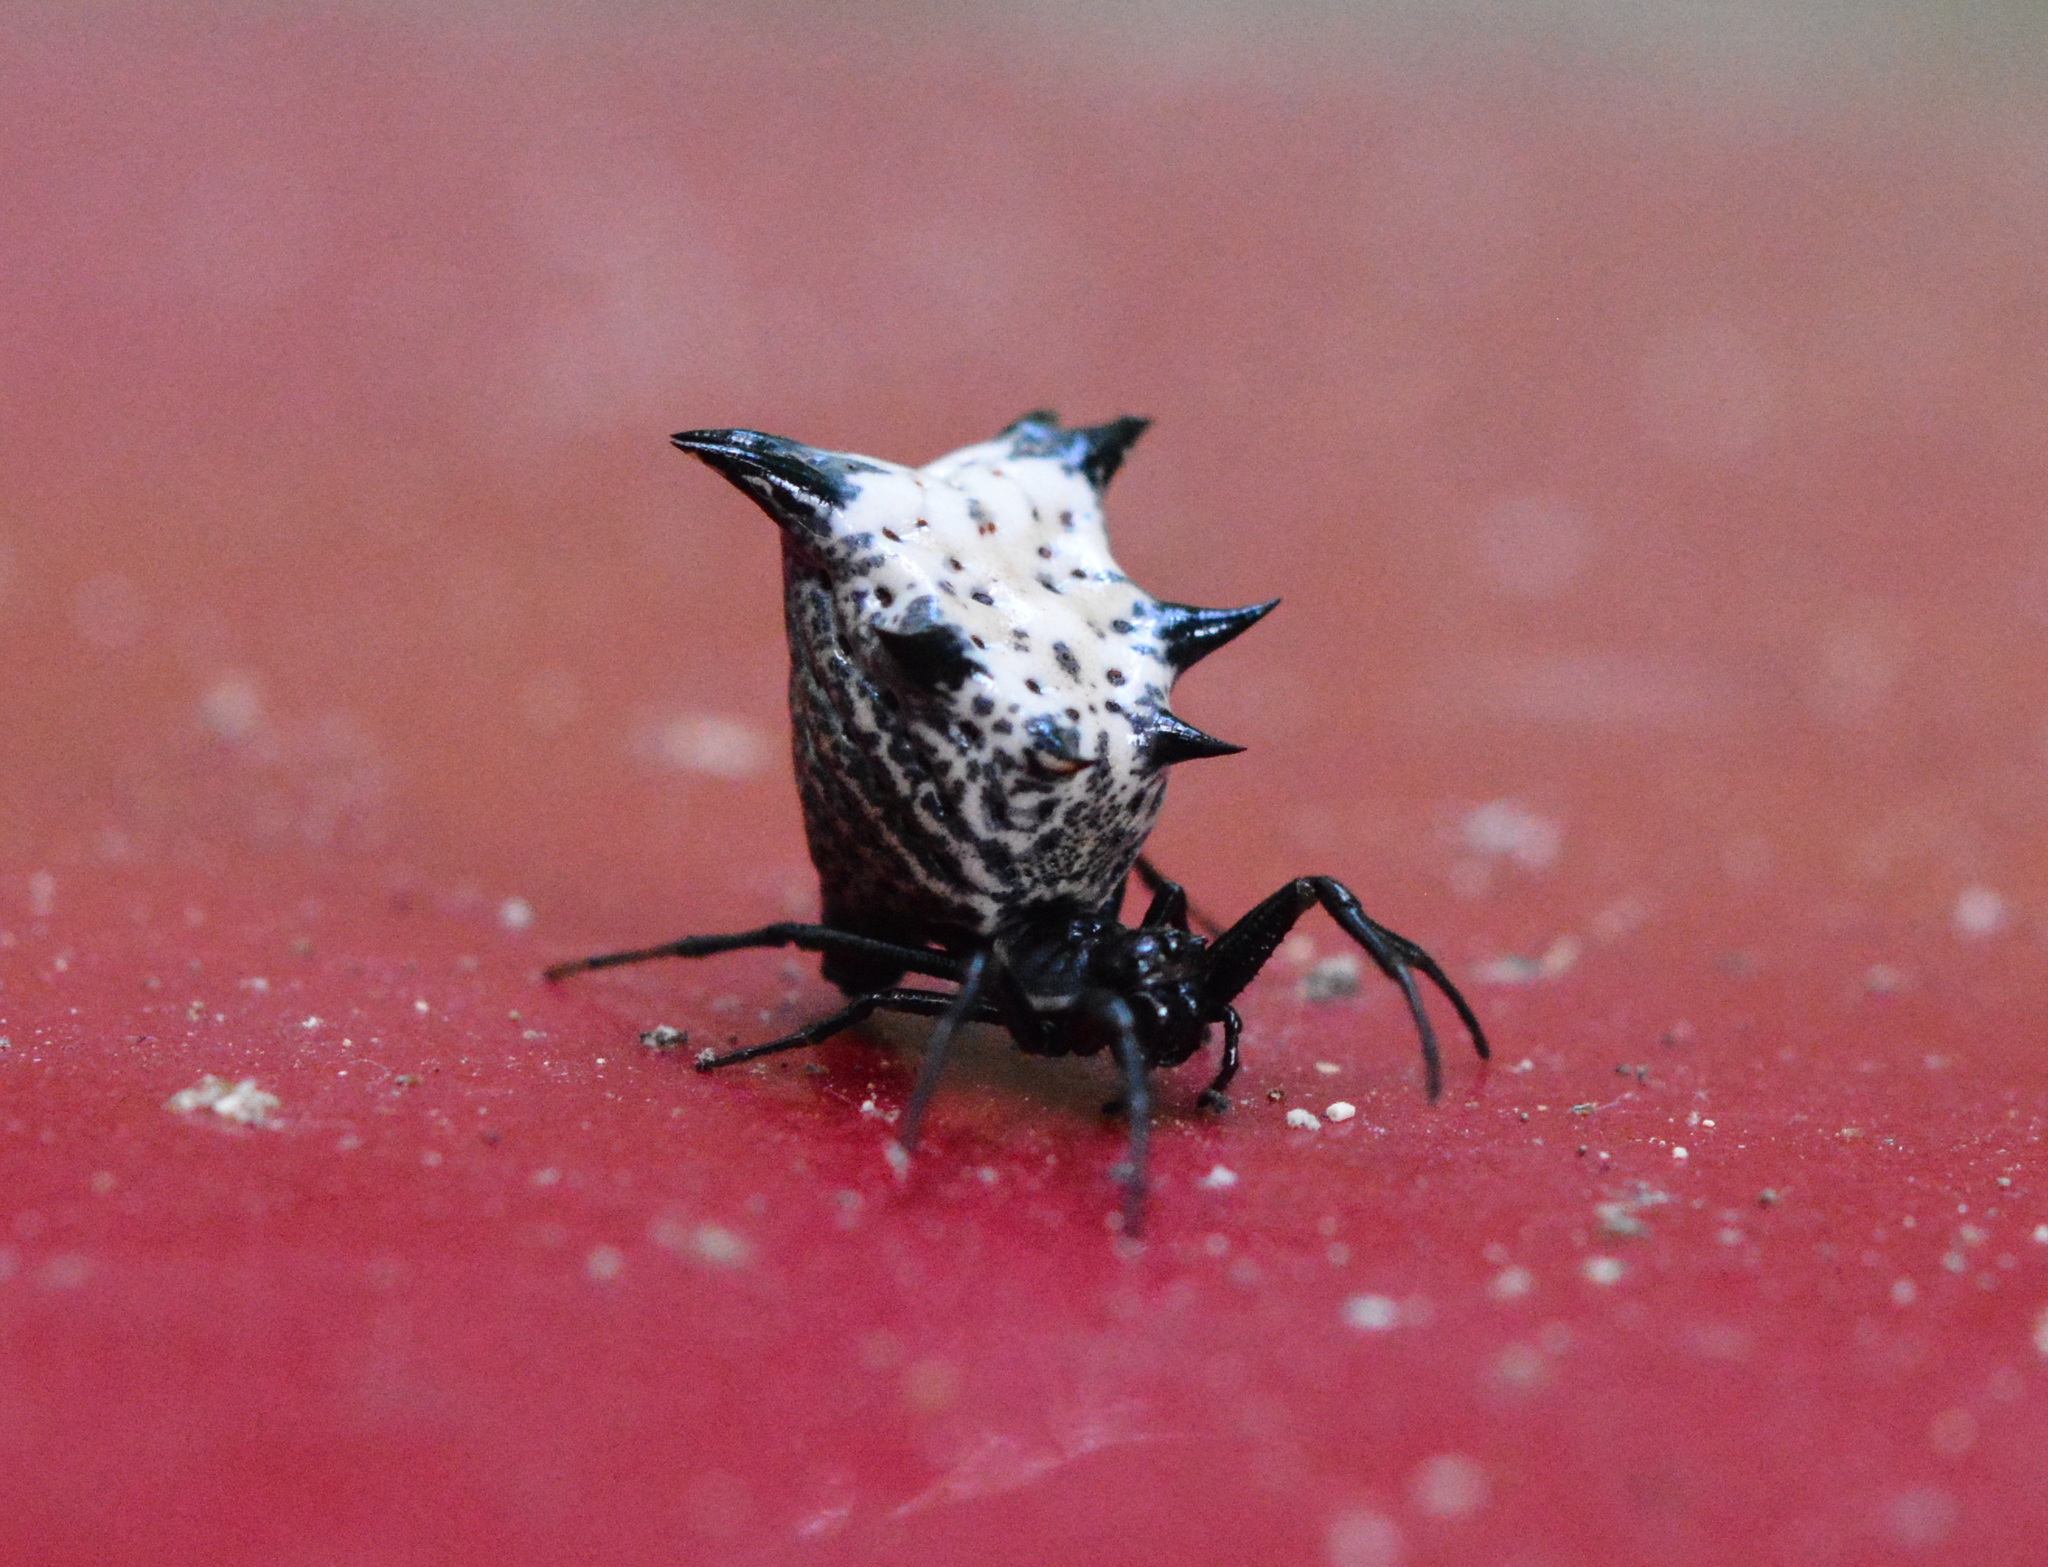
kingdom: Animalia
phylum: Arthropoda
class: Arachnida
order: Araneae
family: Araneidae
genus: Micrathena
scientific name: Micrathena gracilis
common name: Orb weavers
